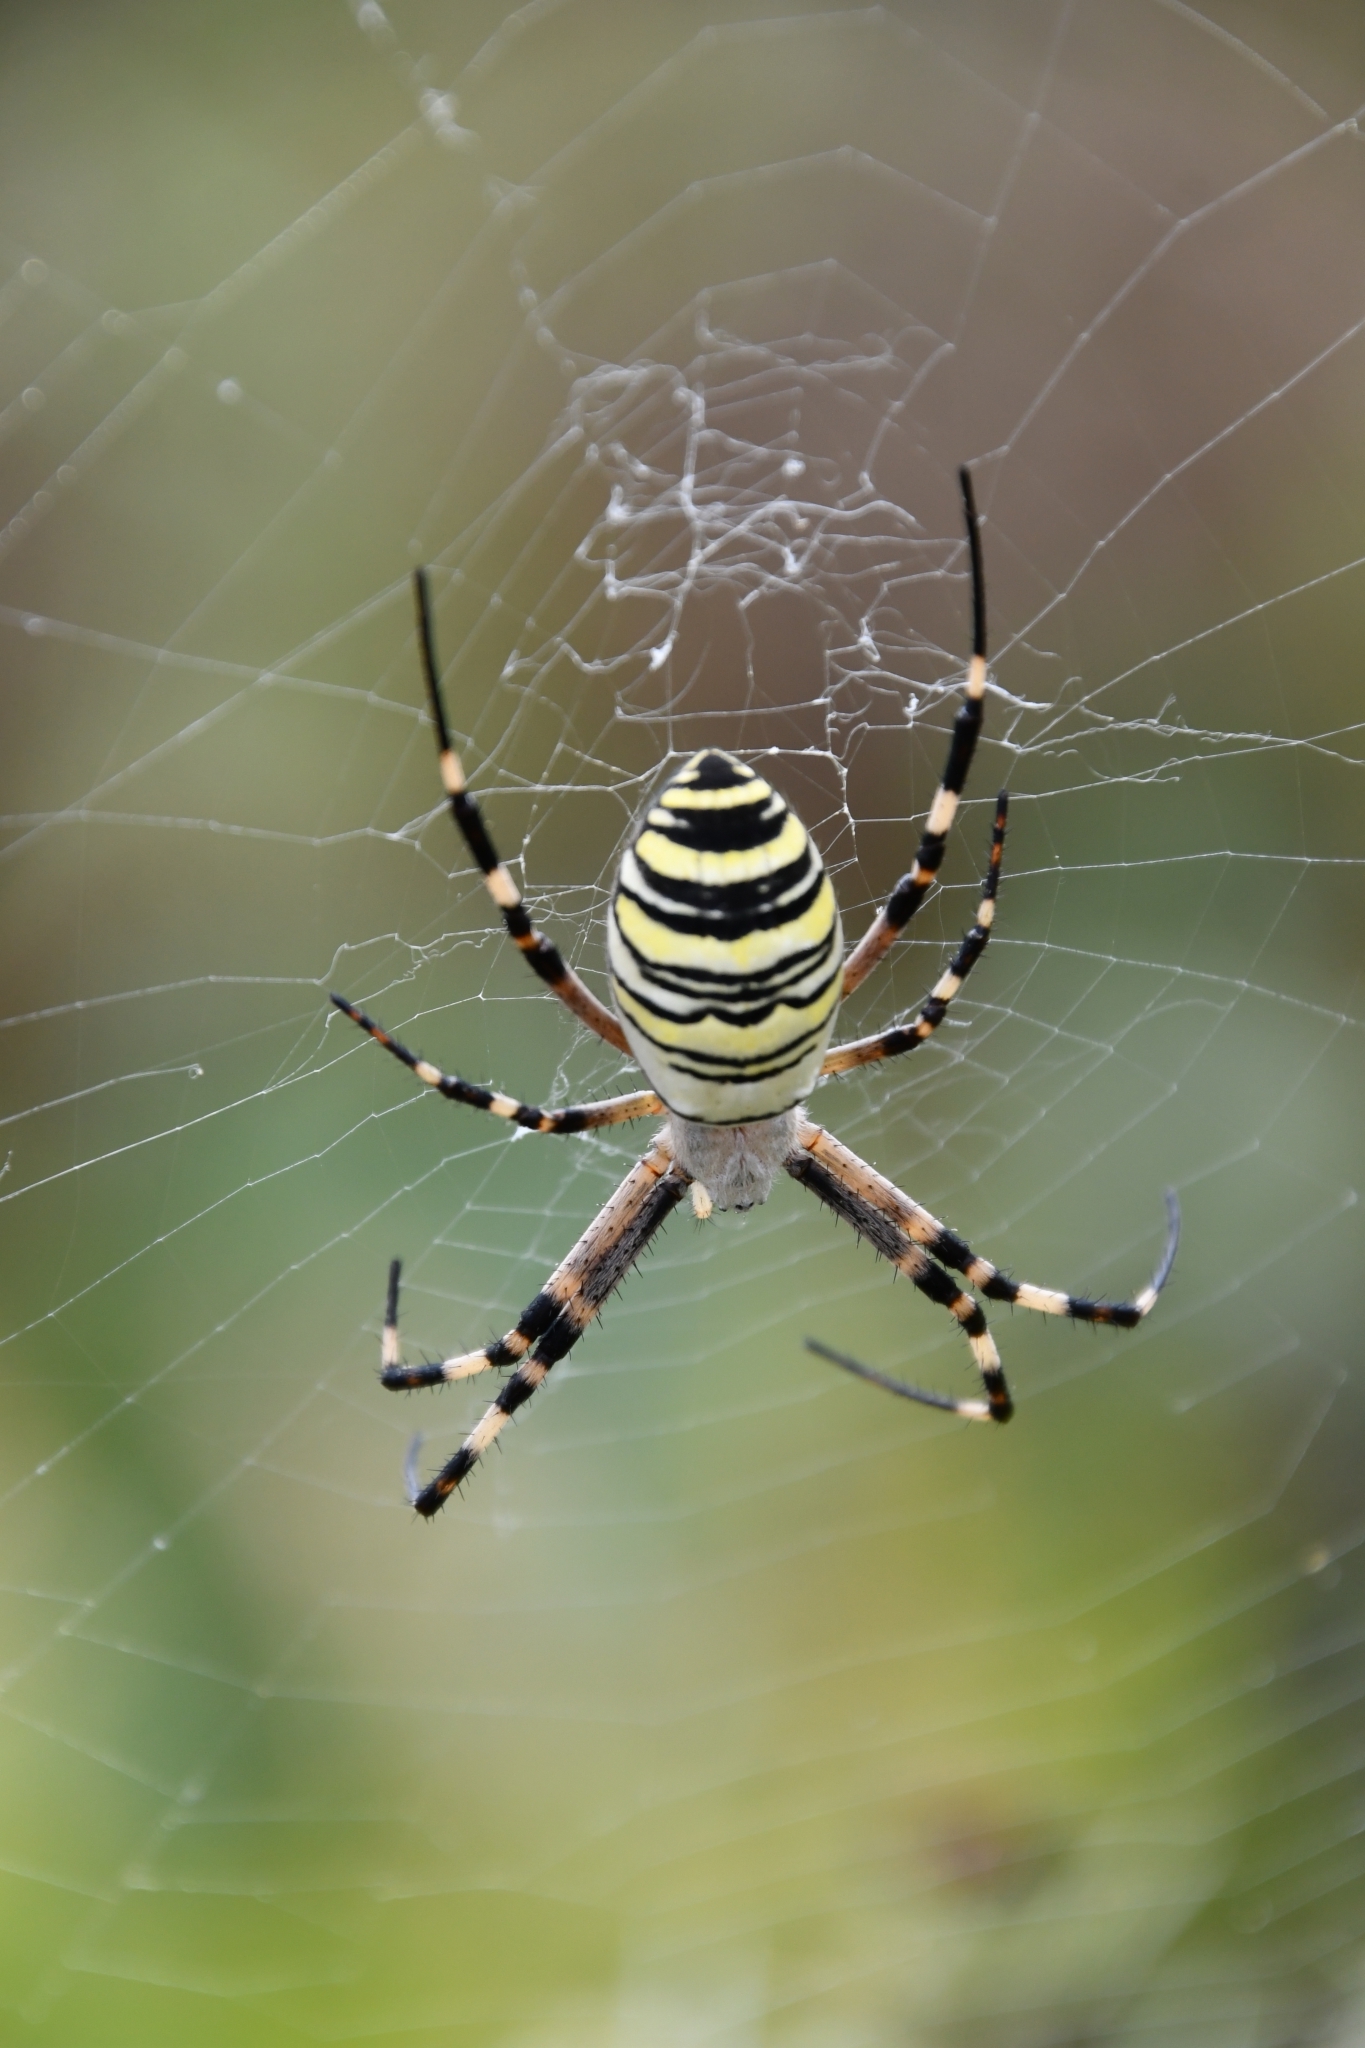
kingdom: Animalia
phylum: Arthropoda
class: Arachnida
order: Araneae
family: Araneidae
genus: Argiope
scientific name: Argiope bruennichi
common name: Wasp spider
